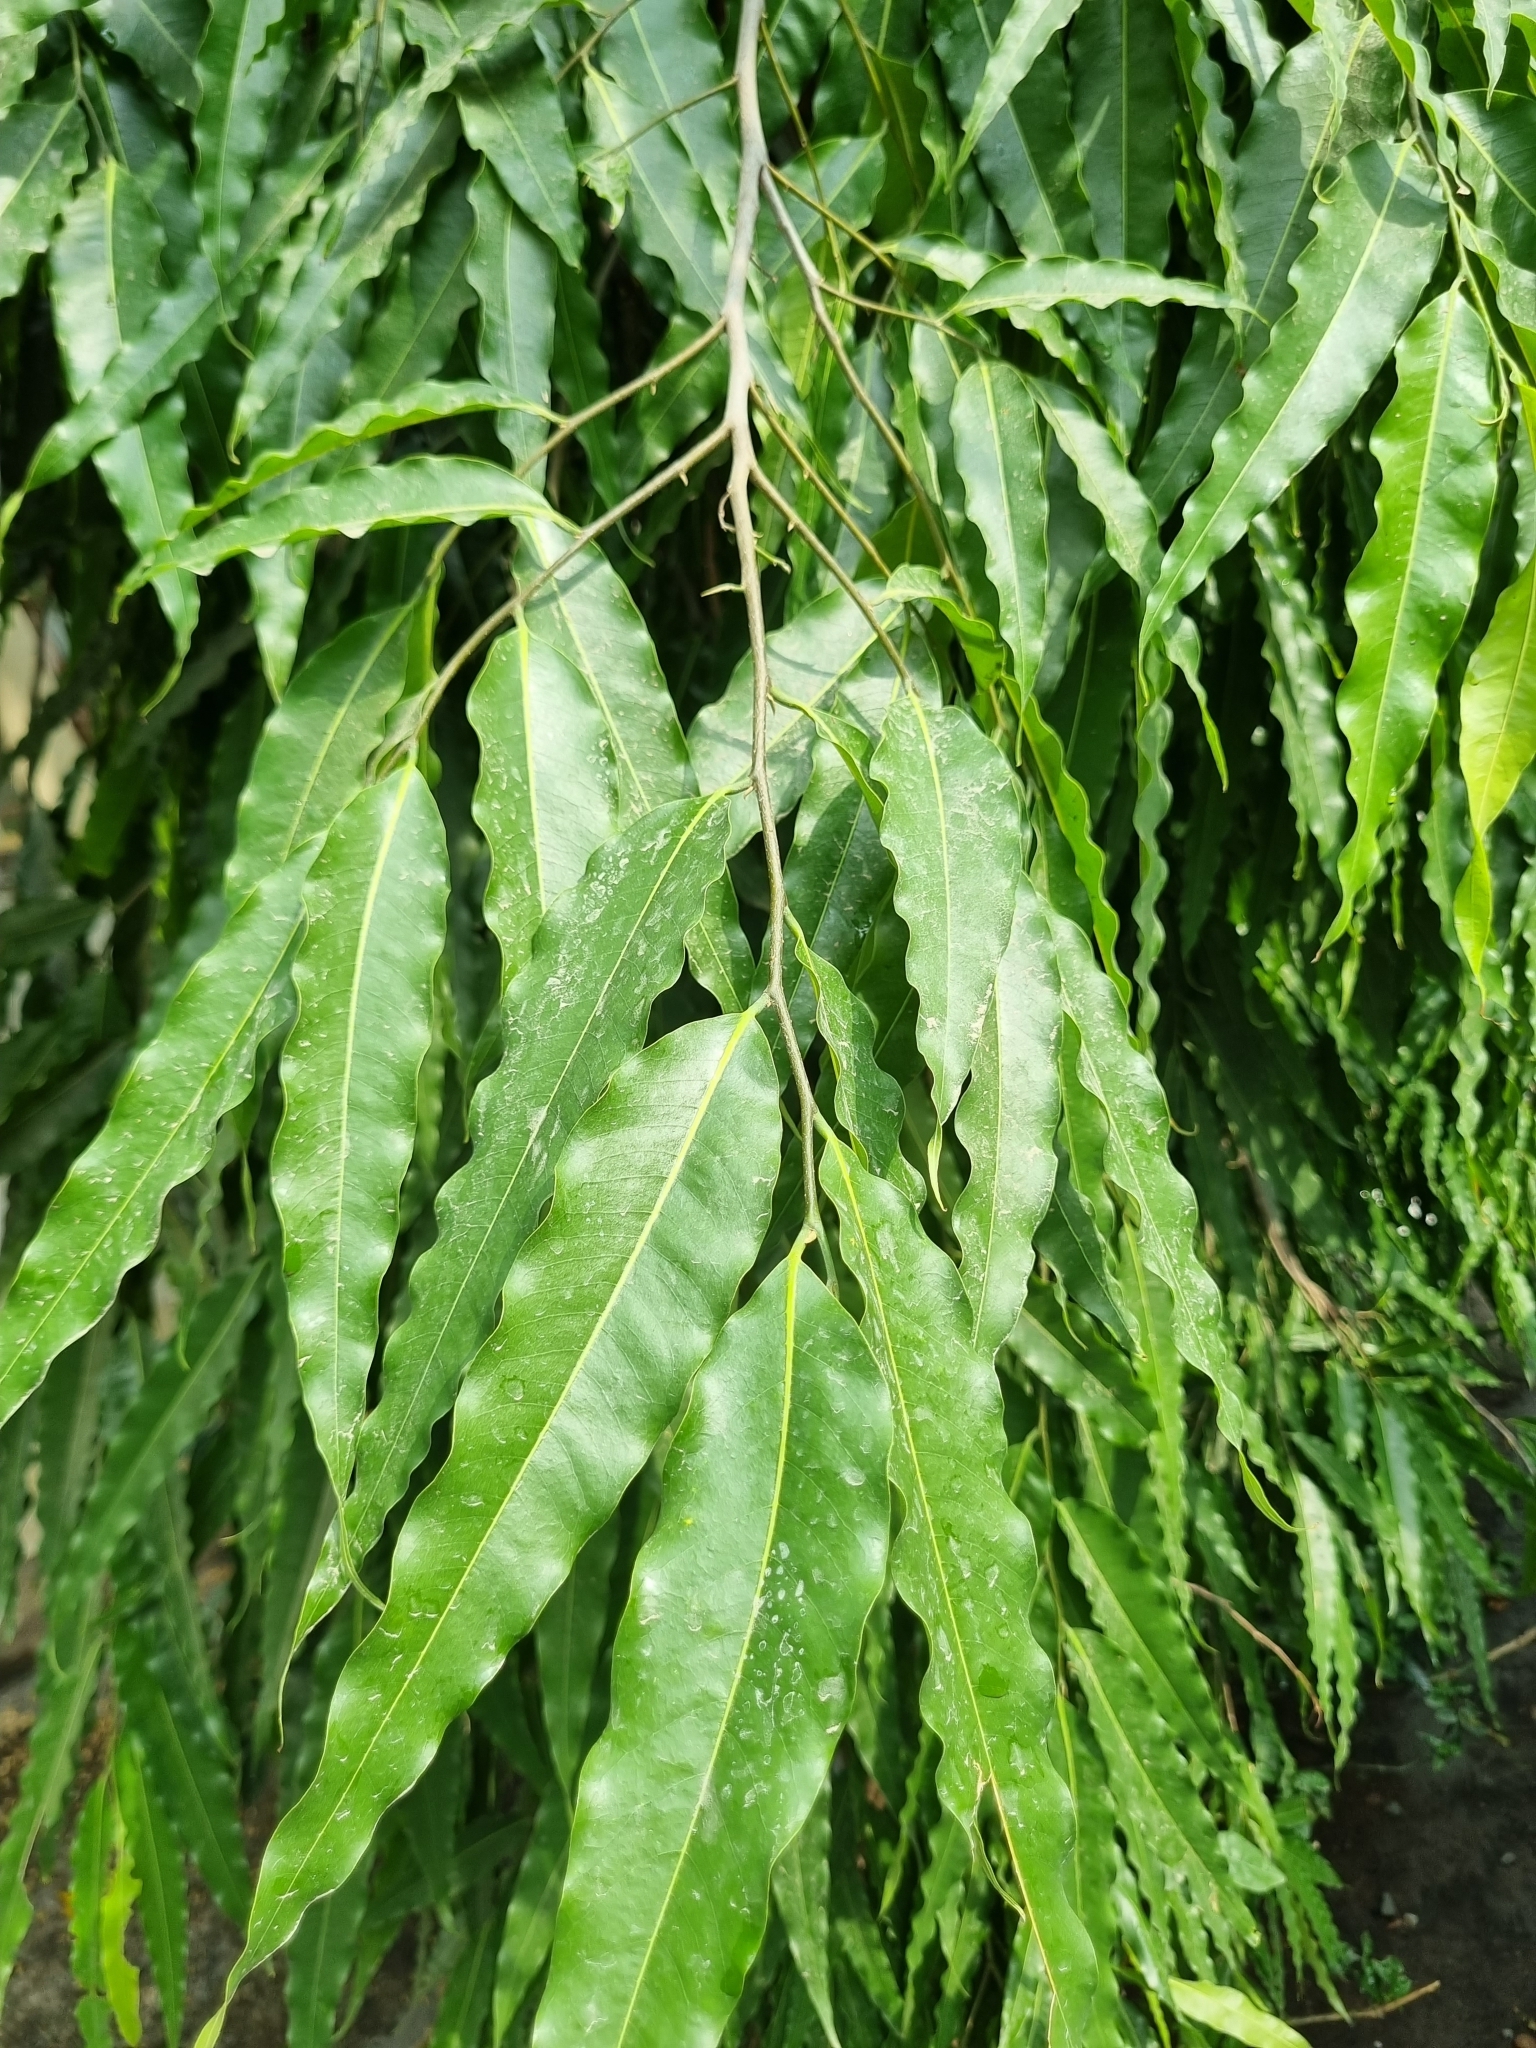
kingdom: Plantae
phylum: Tracheophyta
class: Magnoliopsida
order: Magnoliales
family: Annonaceae
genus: Polyalthia
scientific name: Polyalthia longifolia
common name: Cemetery-tree
